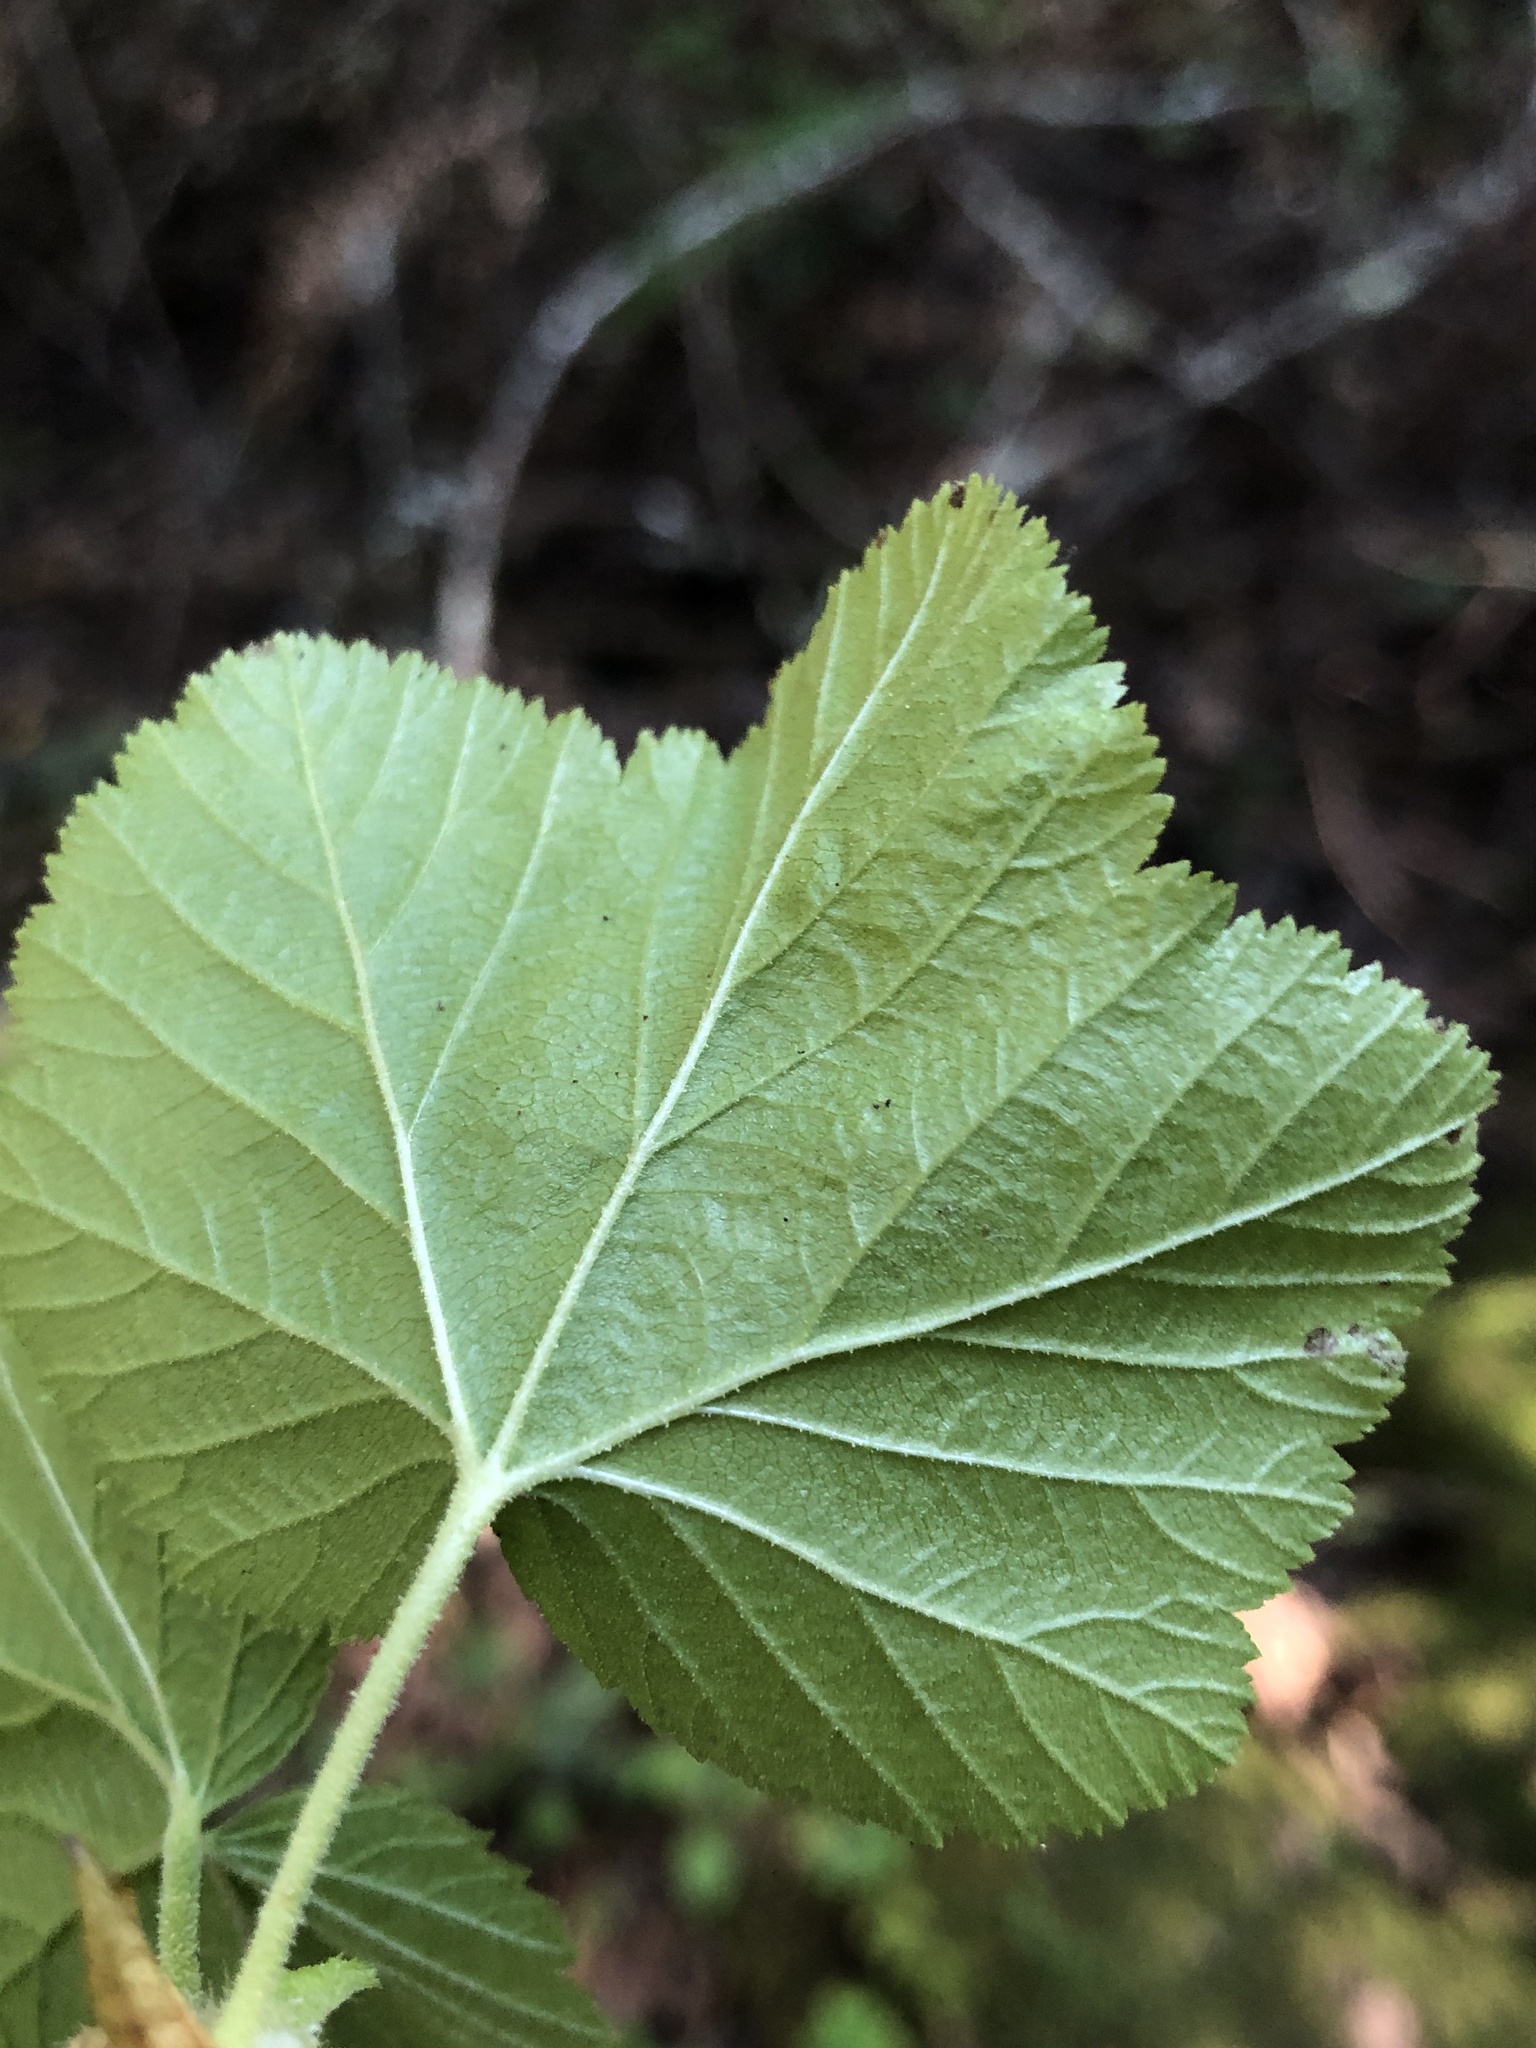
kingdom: Plantae
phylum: Tracheophyta
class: Magnoliopsida
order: Saxifragales
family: Grossulariaceae
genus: Ribes
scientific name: Ribes sanguineum
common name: Flowering currant
